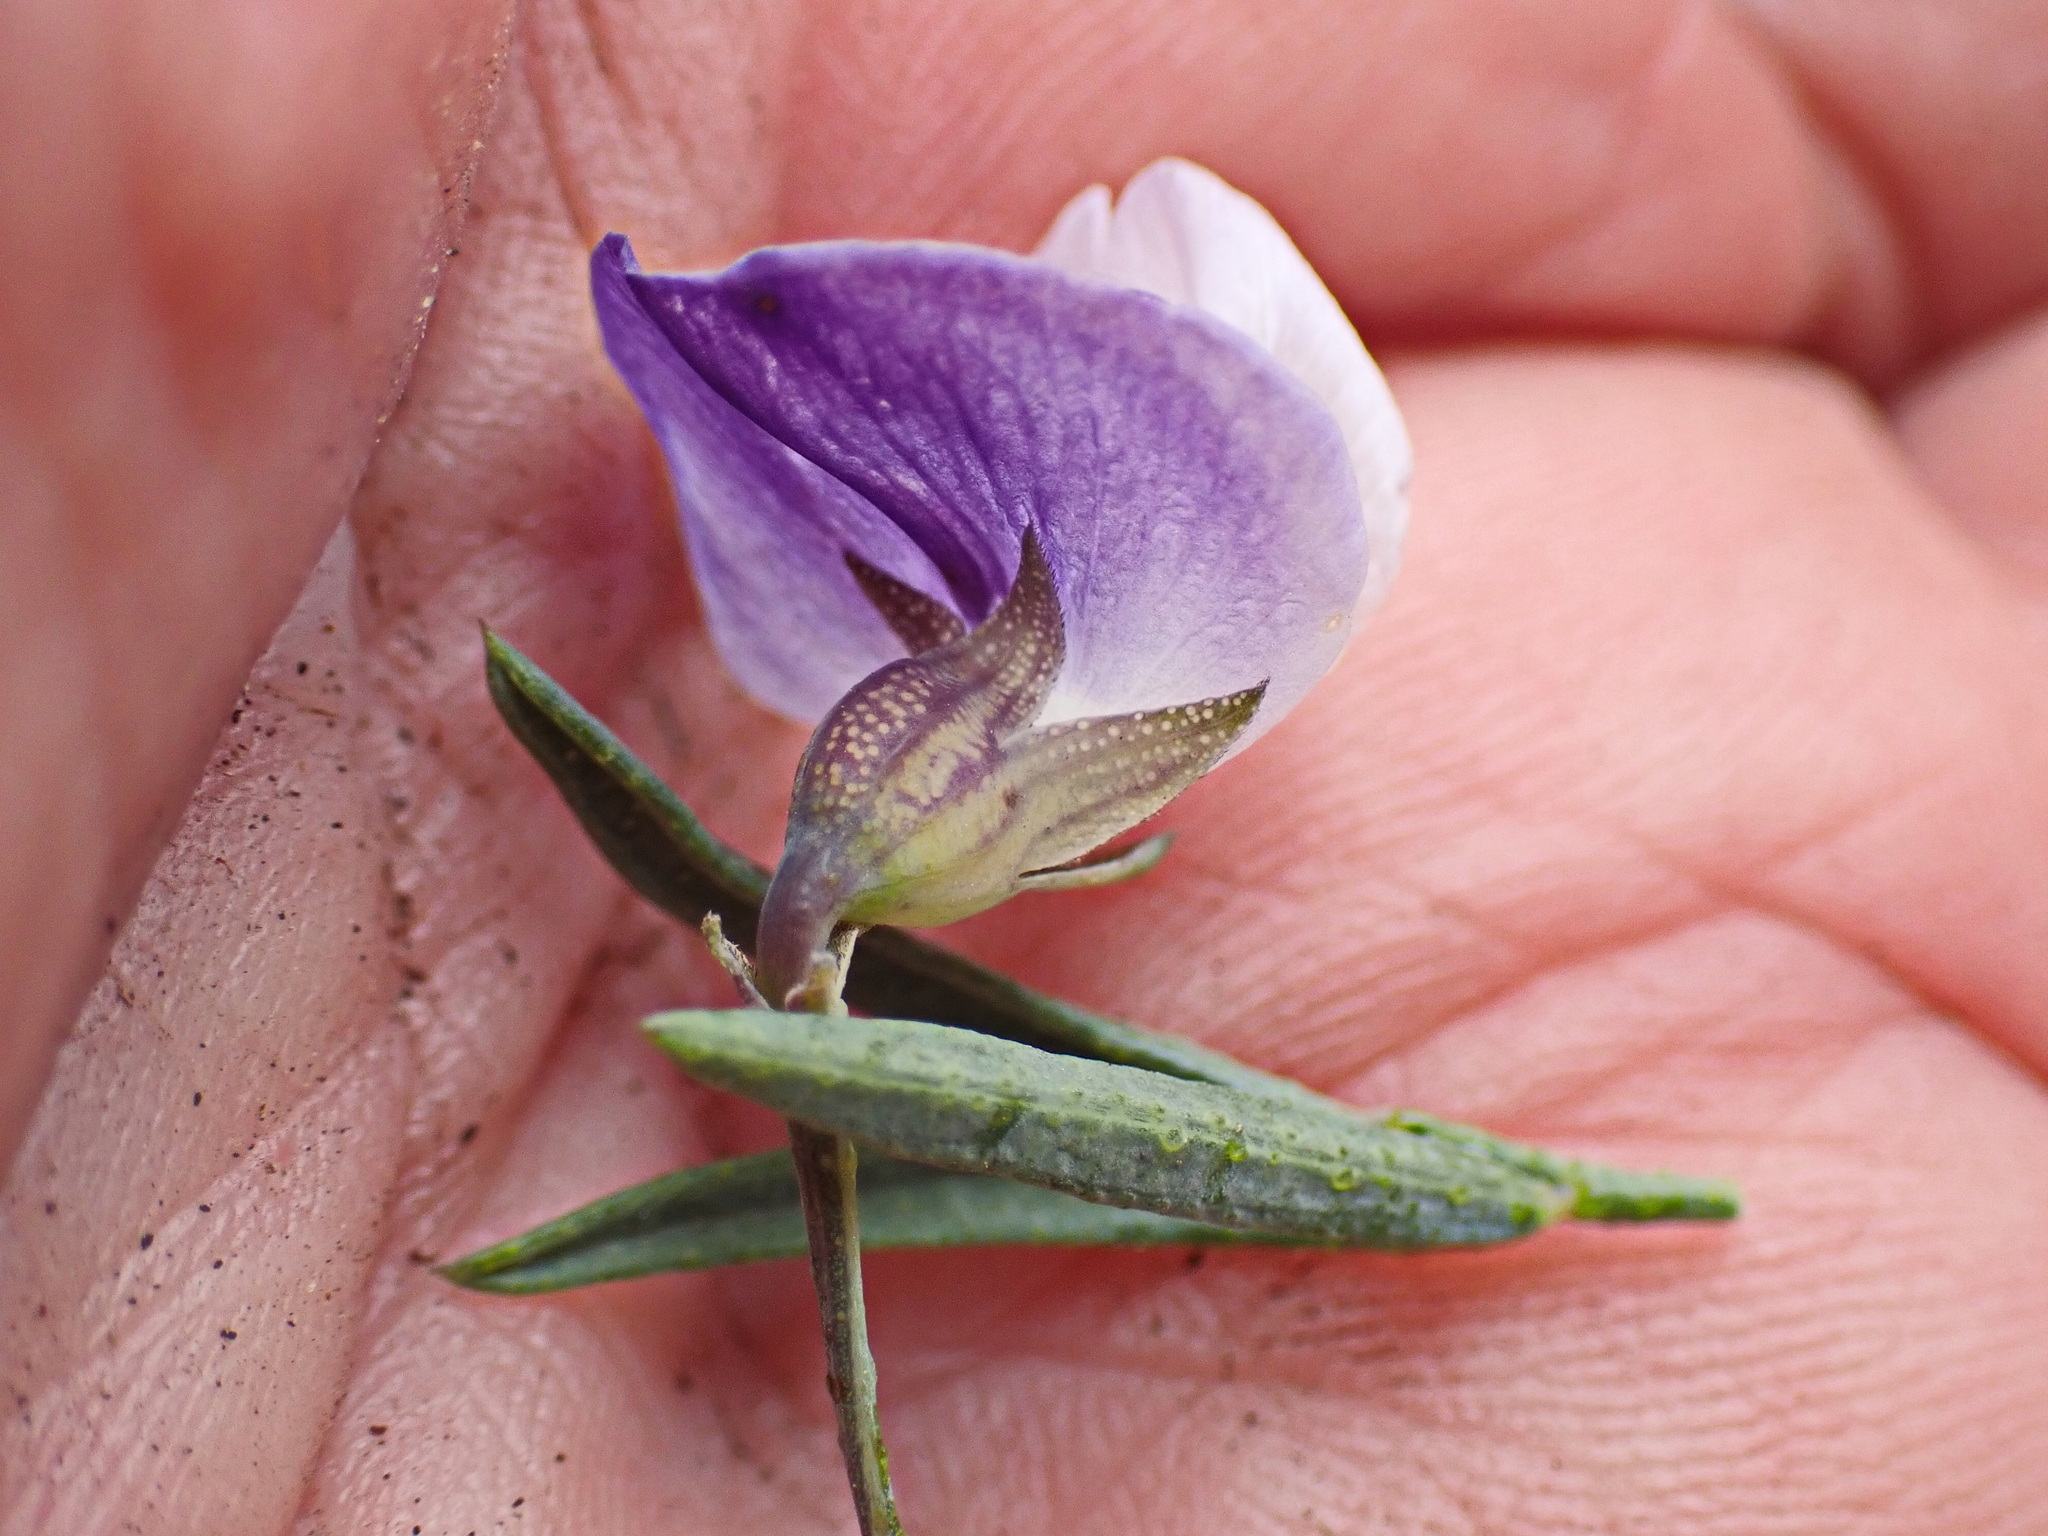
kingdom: Plantae
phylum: Tracheophyta
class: Magnoliopsida
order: Fabales
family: Fabaceae
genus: Psoralea
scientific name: Psoralea axillaris
